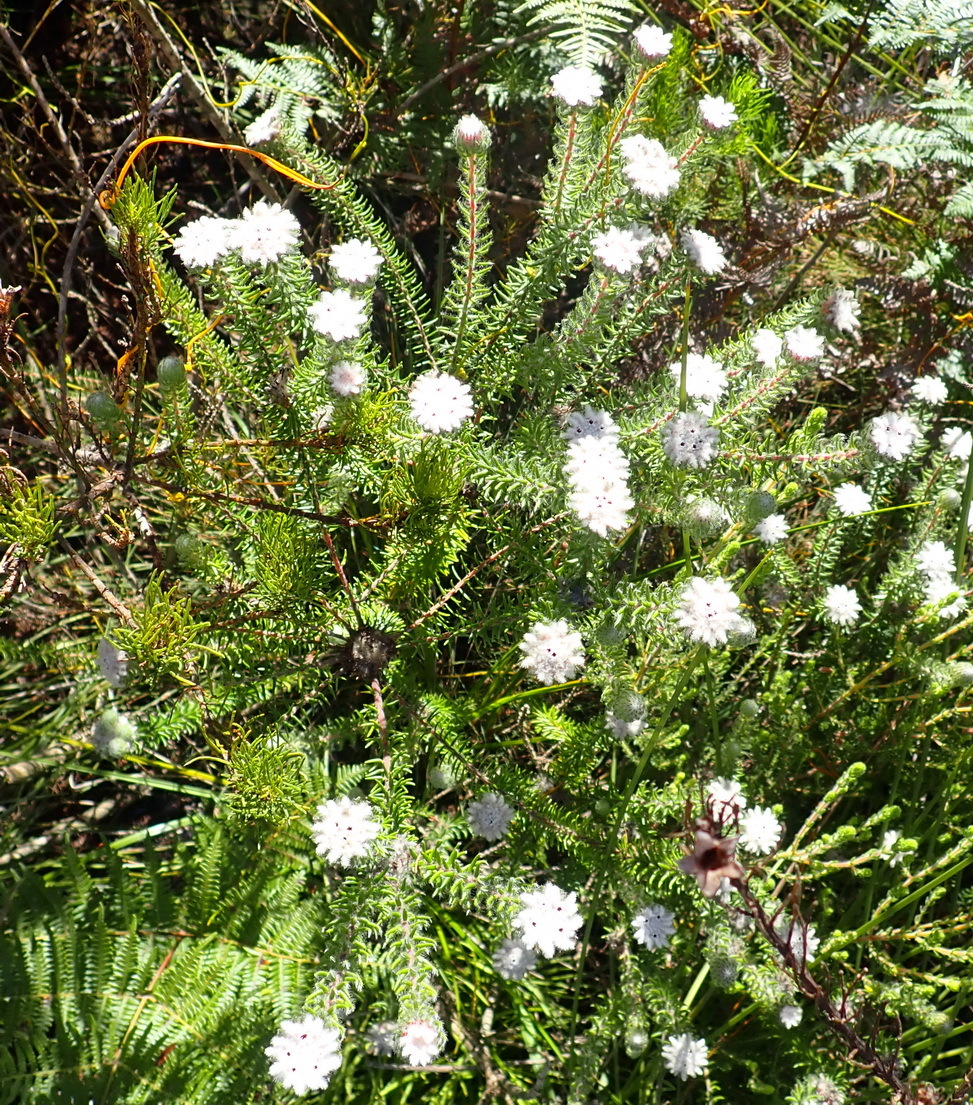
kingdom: Plantae
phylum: Tracheophyta
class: Magnoliopsida
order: Rosales
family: Rhamnaceae
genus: Phylica
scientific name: Phylica curvifolia
